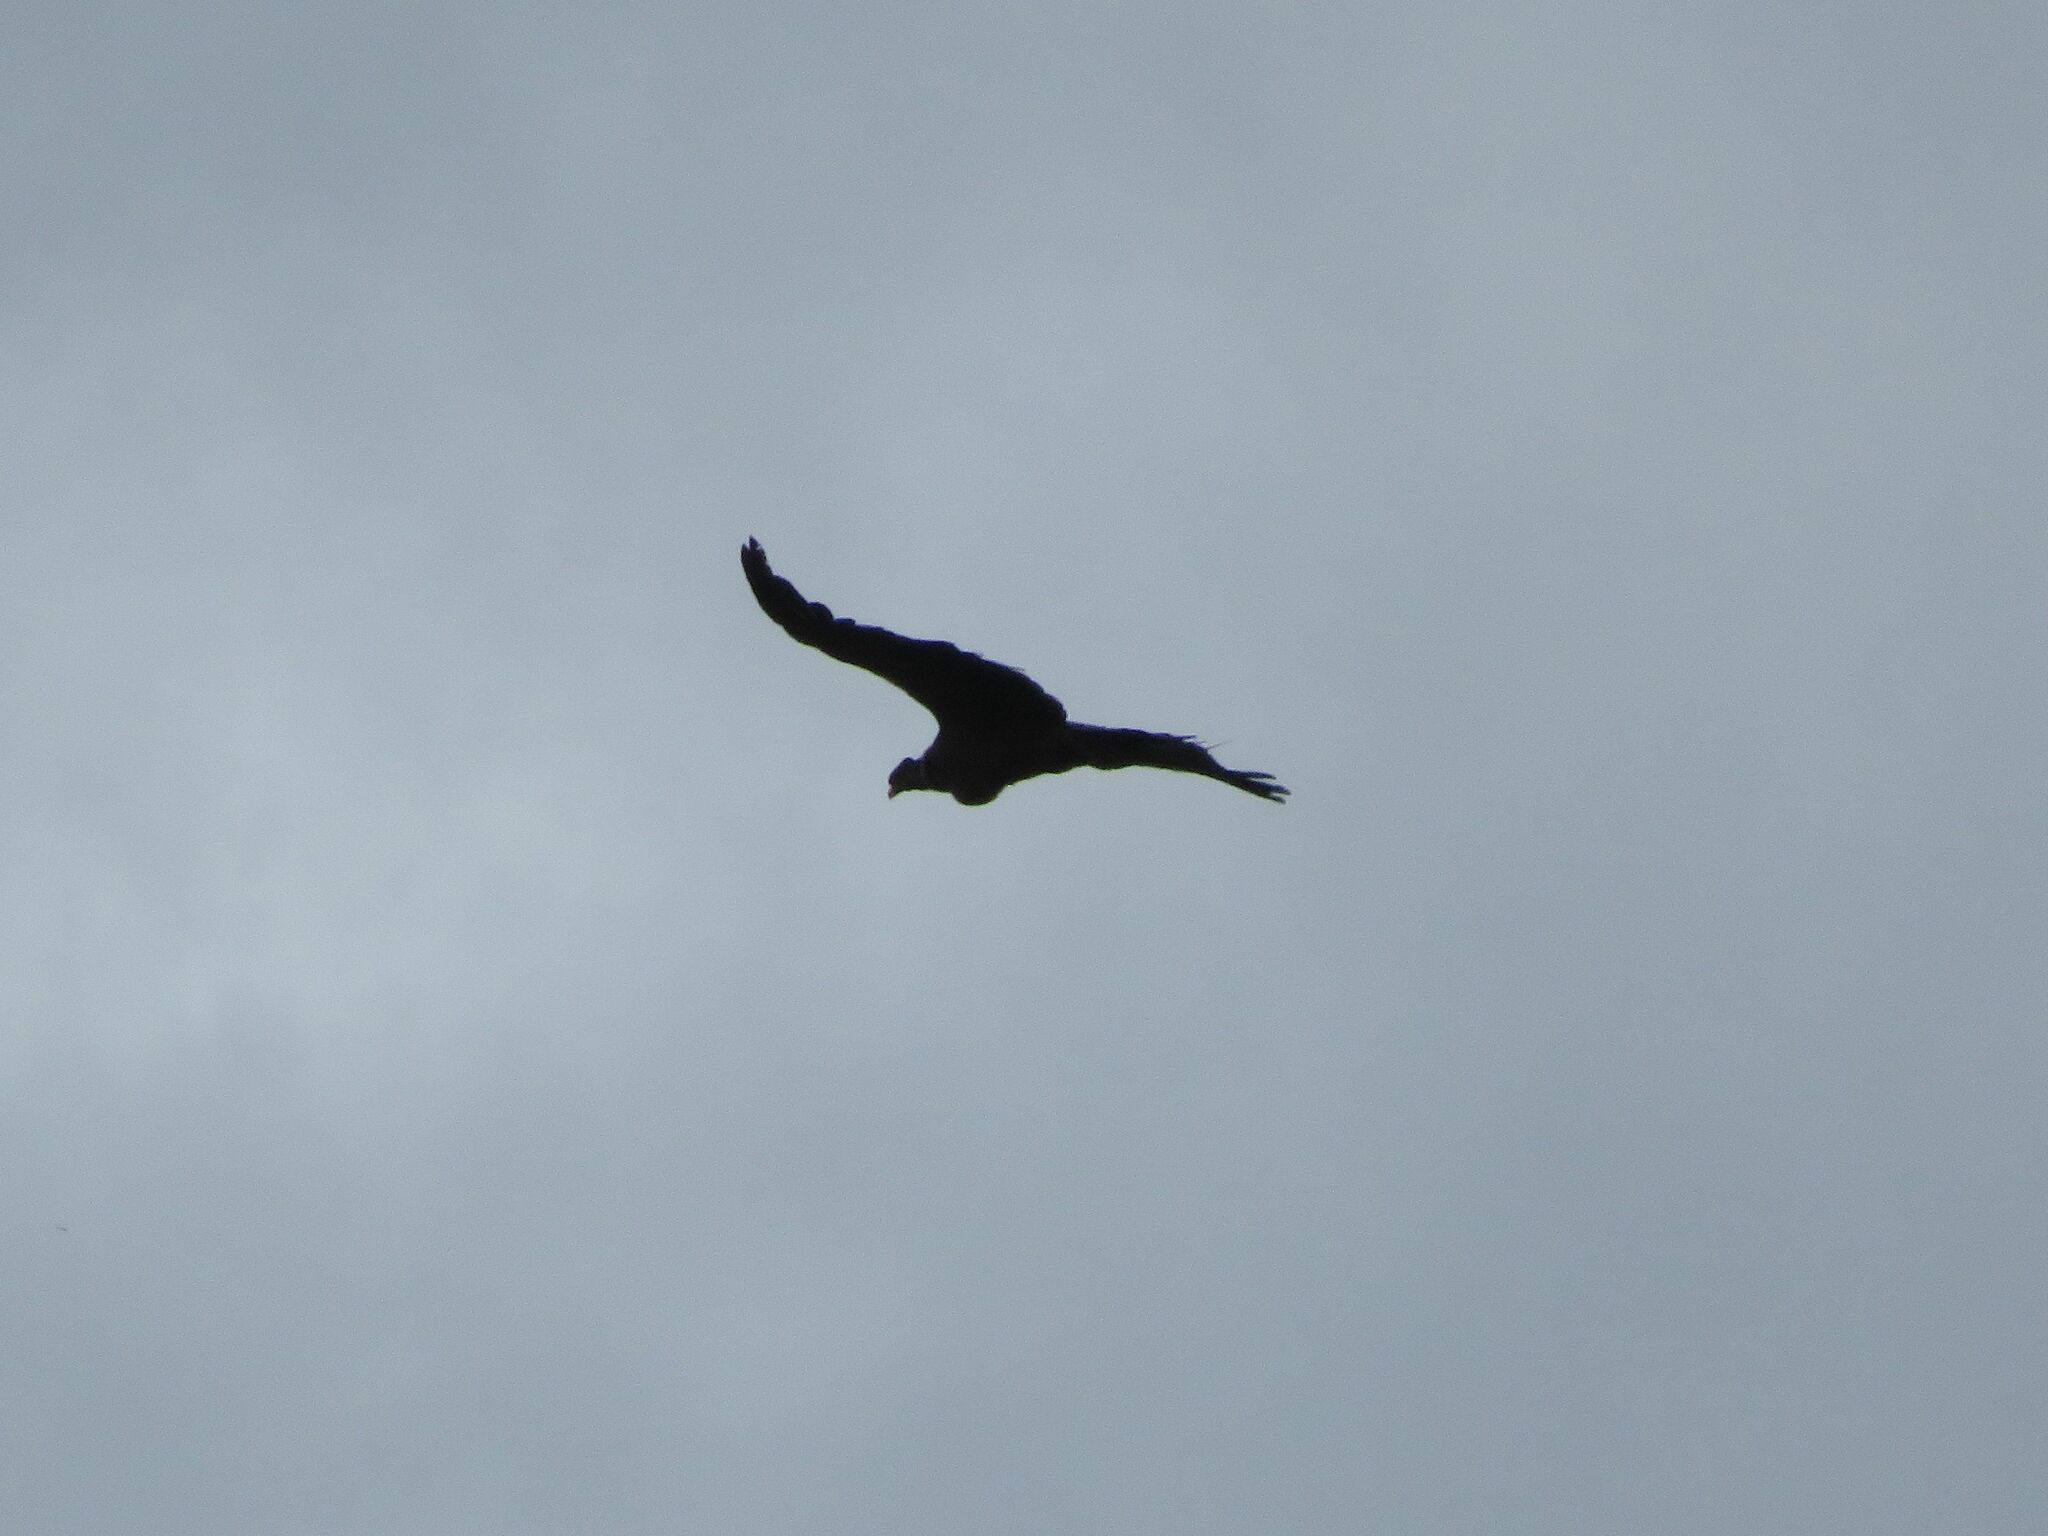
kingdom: Animalia
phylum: Chordata
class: Aves
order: Accipitriformes
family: Cathartidae
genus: Vultur
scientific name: Vultur gryphus
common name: Andean condor
